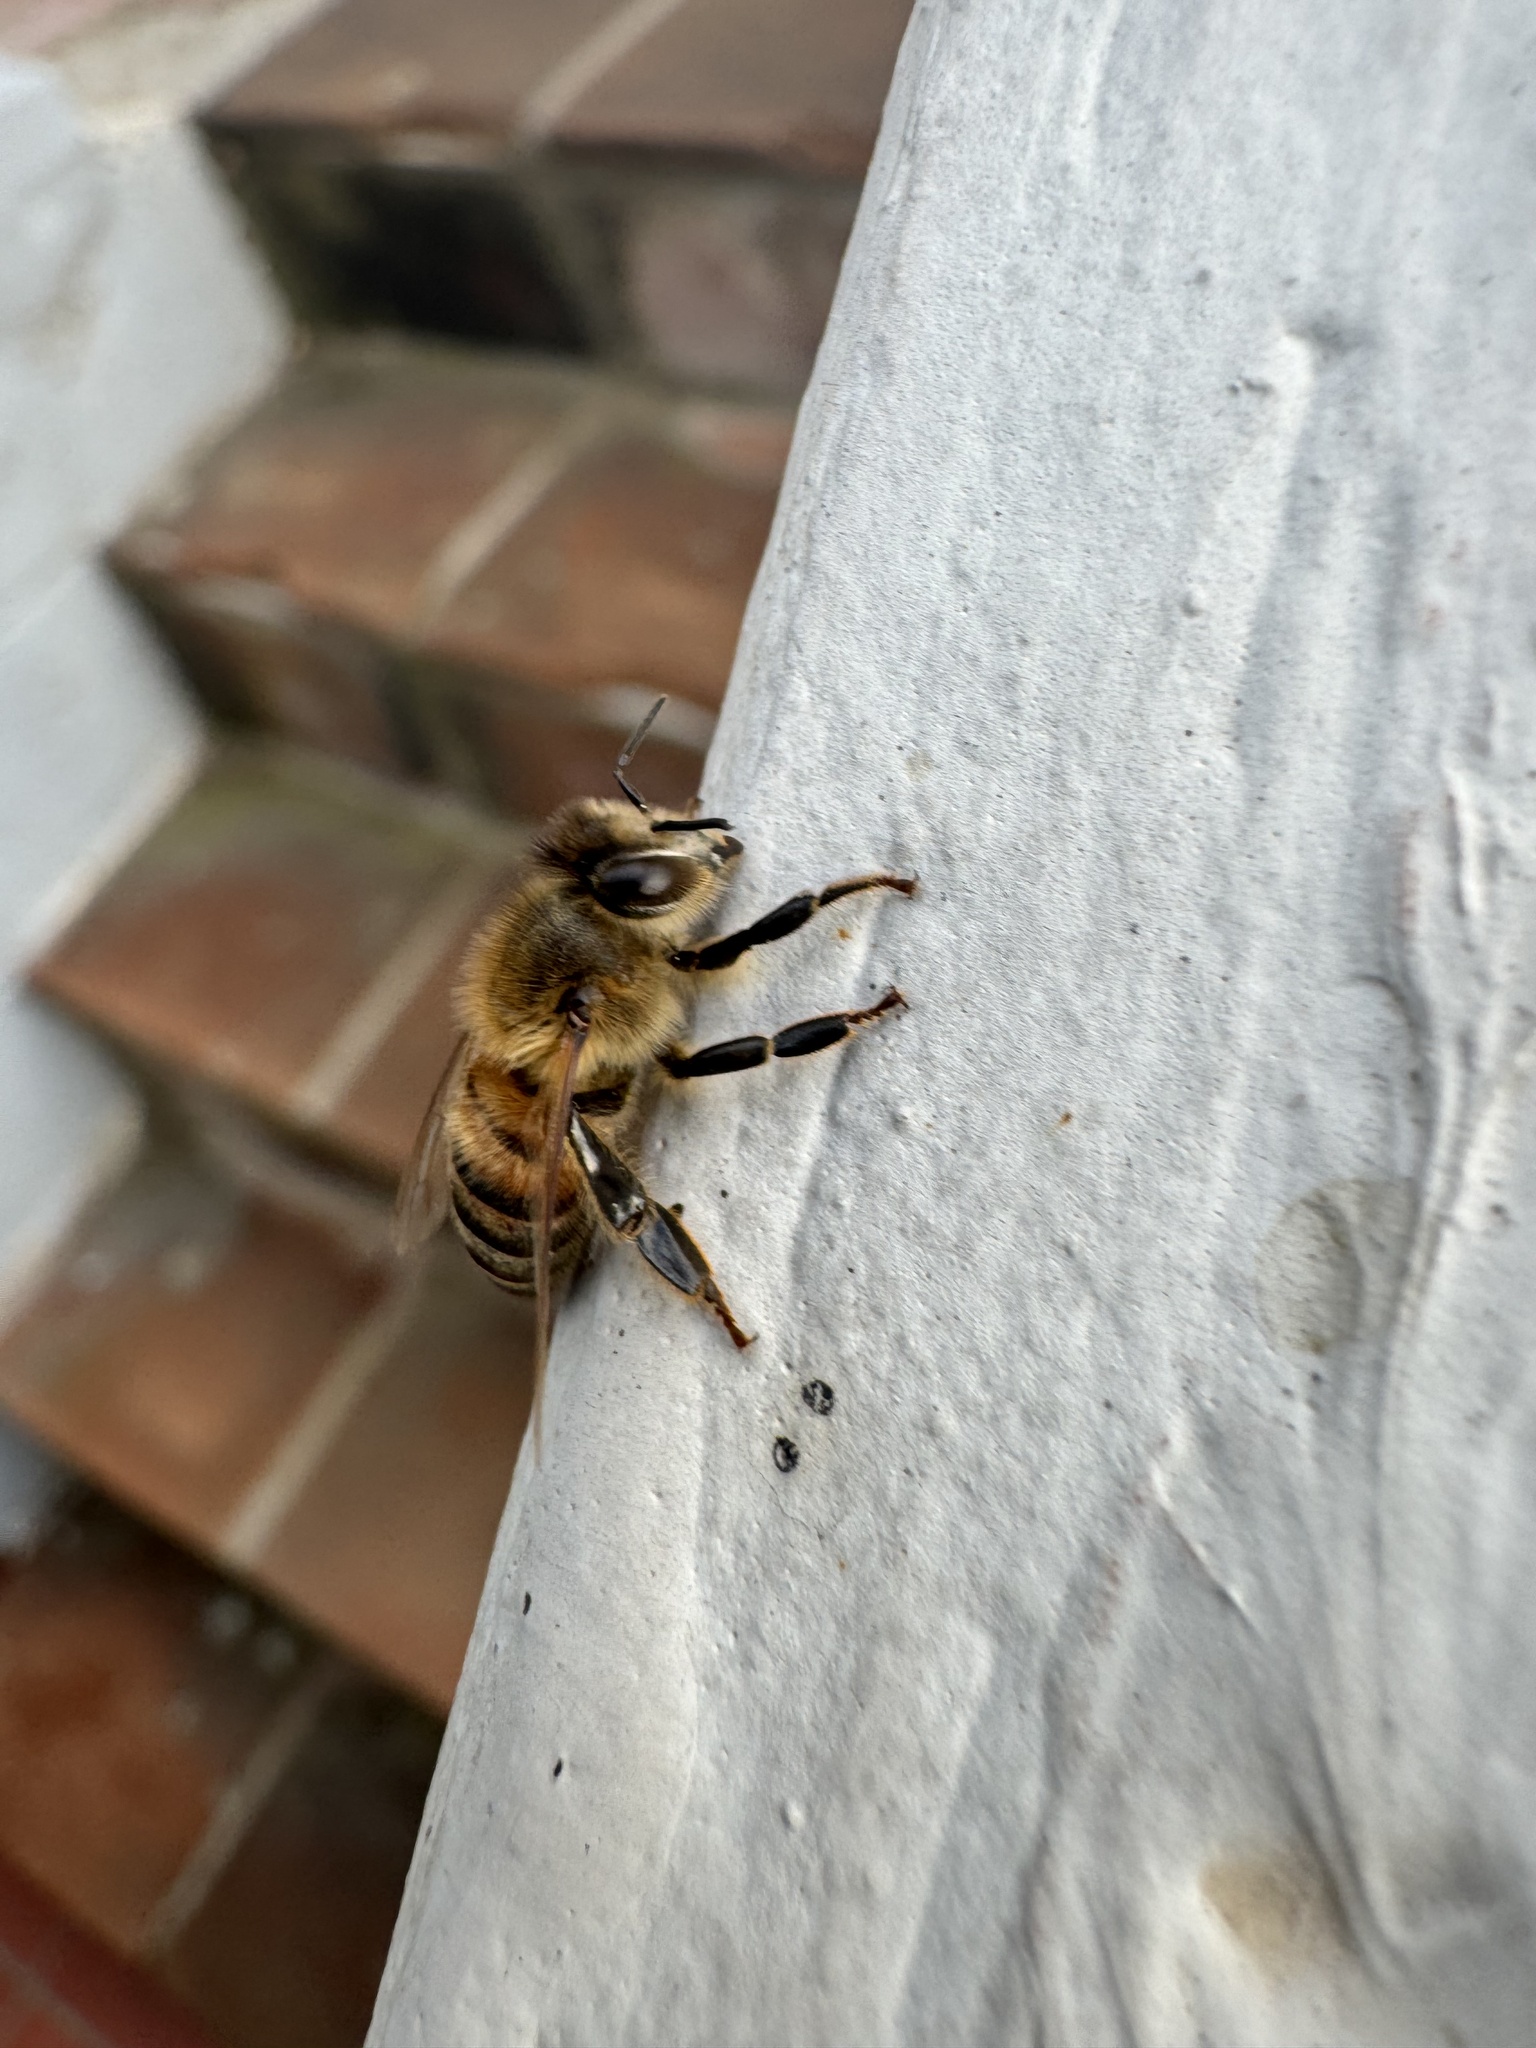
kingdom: Animalia
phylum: Arthropoda
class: Insecta
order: Hymenoptera
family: Apidae
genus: Apis
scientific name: Apis mellifera
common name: Honey bee
